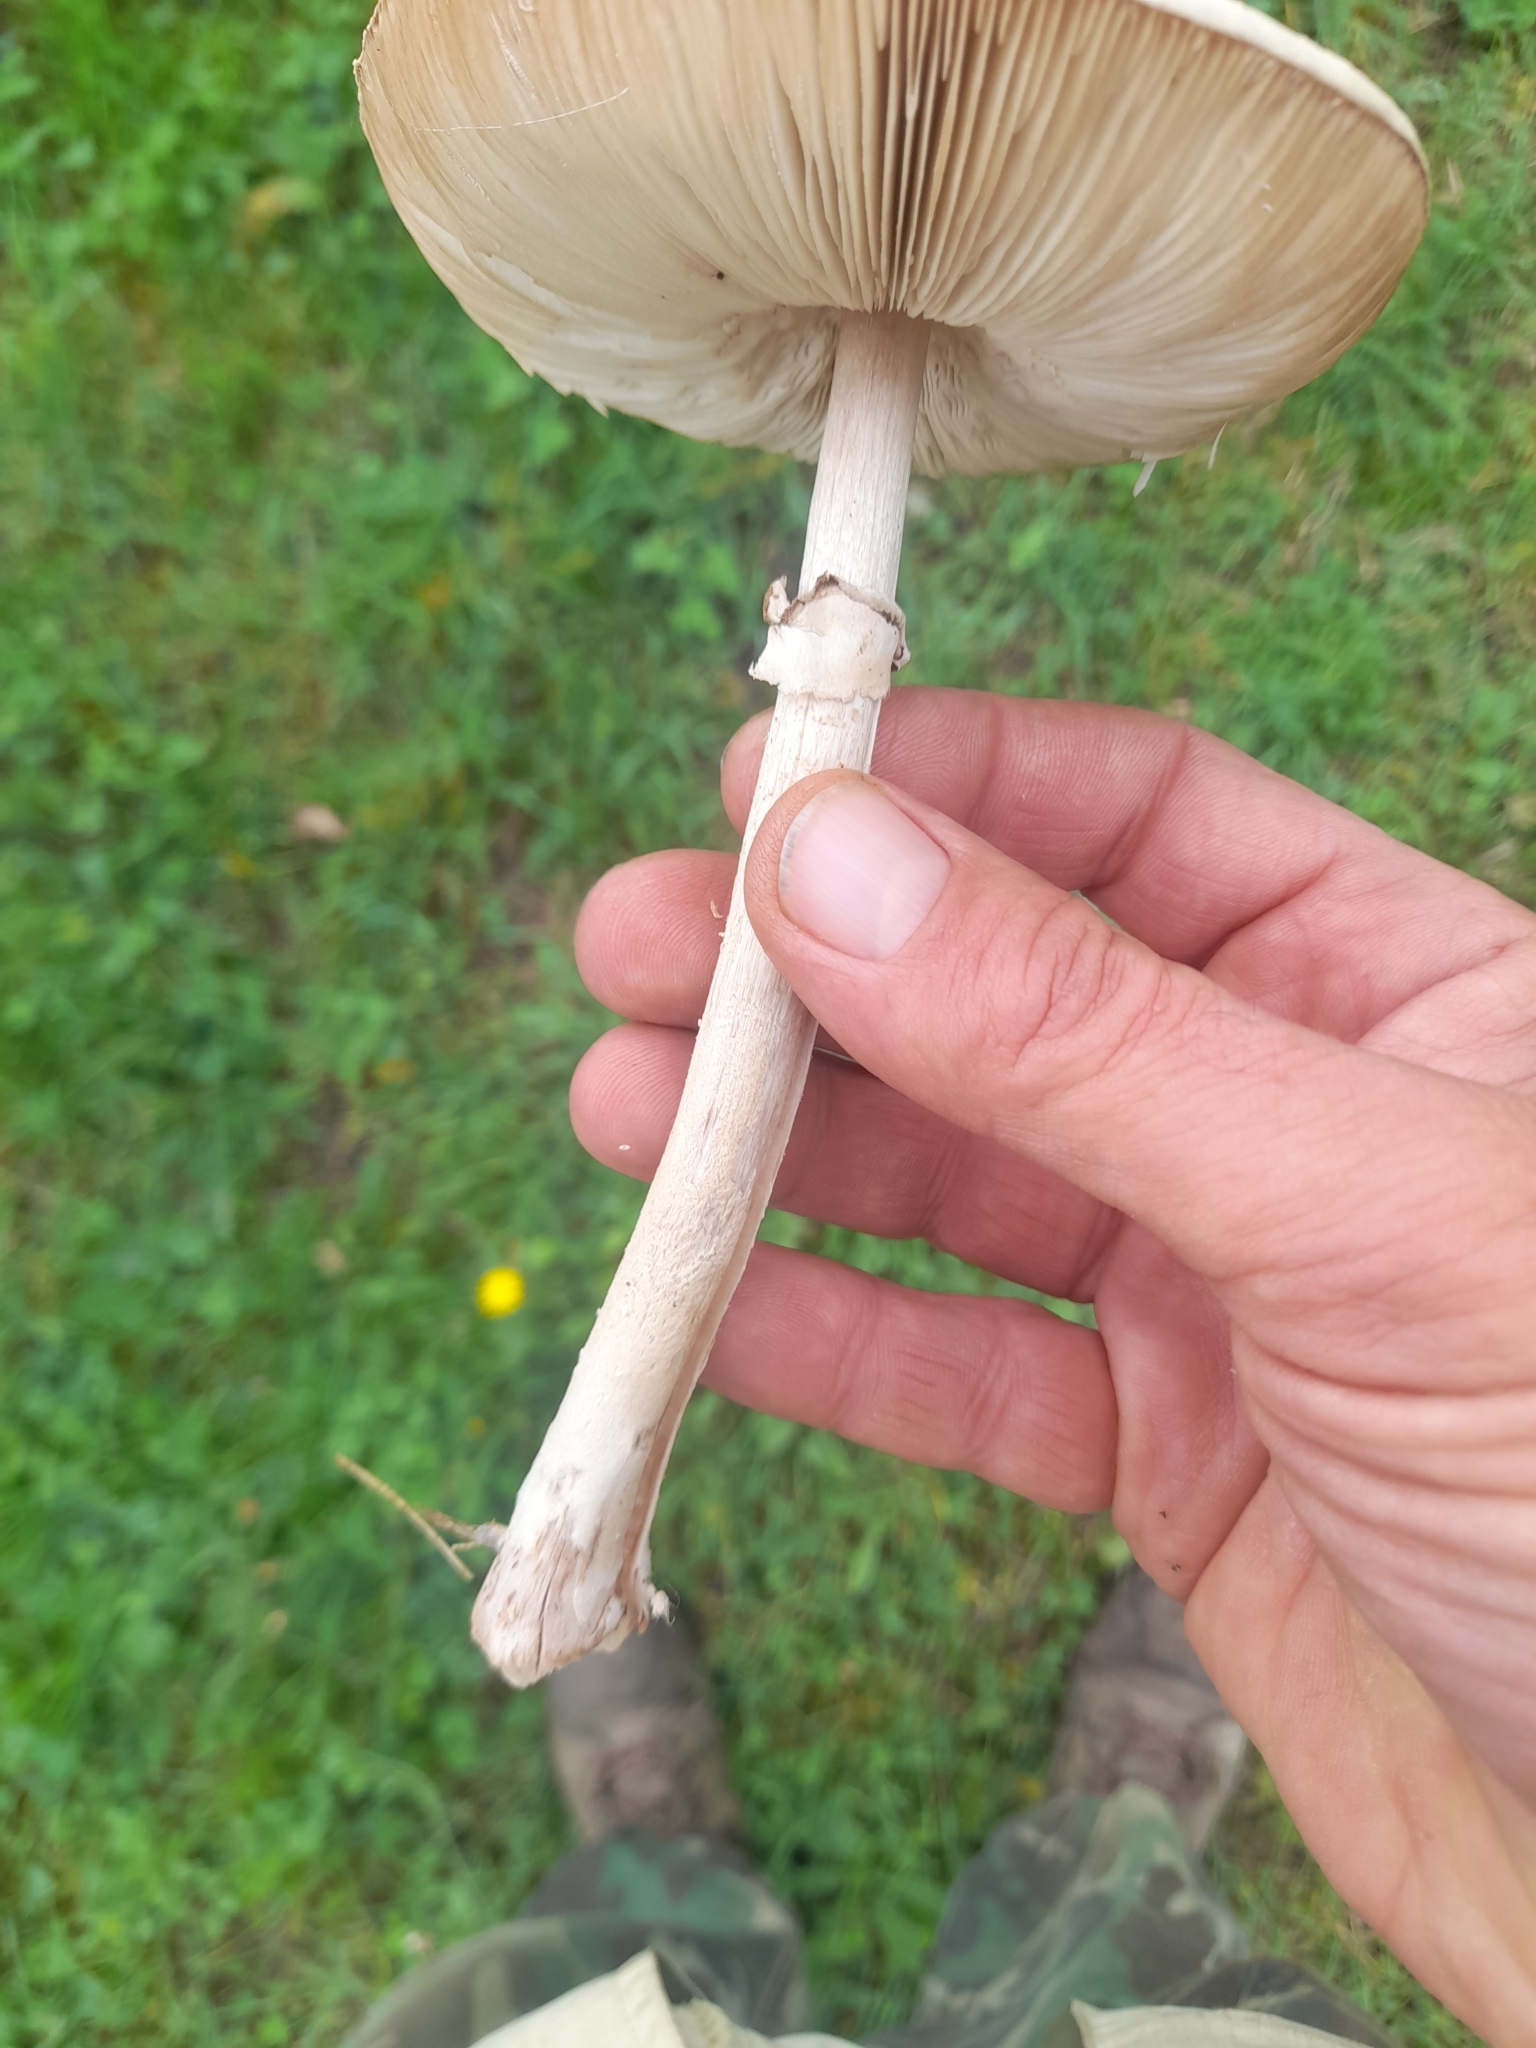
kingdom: Fungi
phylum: Basidiomycota
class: Agaricomycetes
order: Agaricales
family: Agaricaceae
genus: Macrolepiota
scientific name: Macrolepiota mastoidea
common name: Slender parasol
